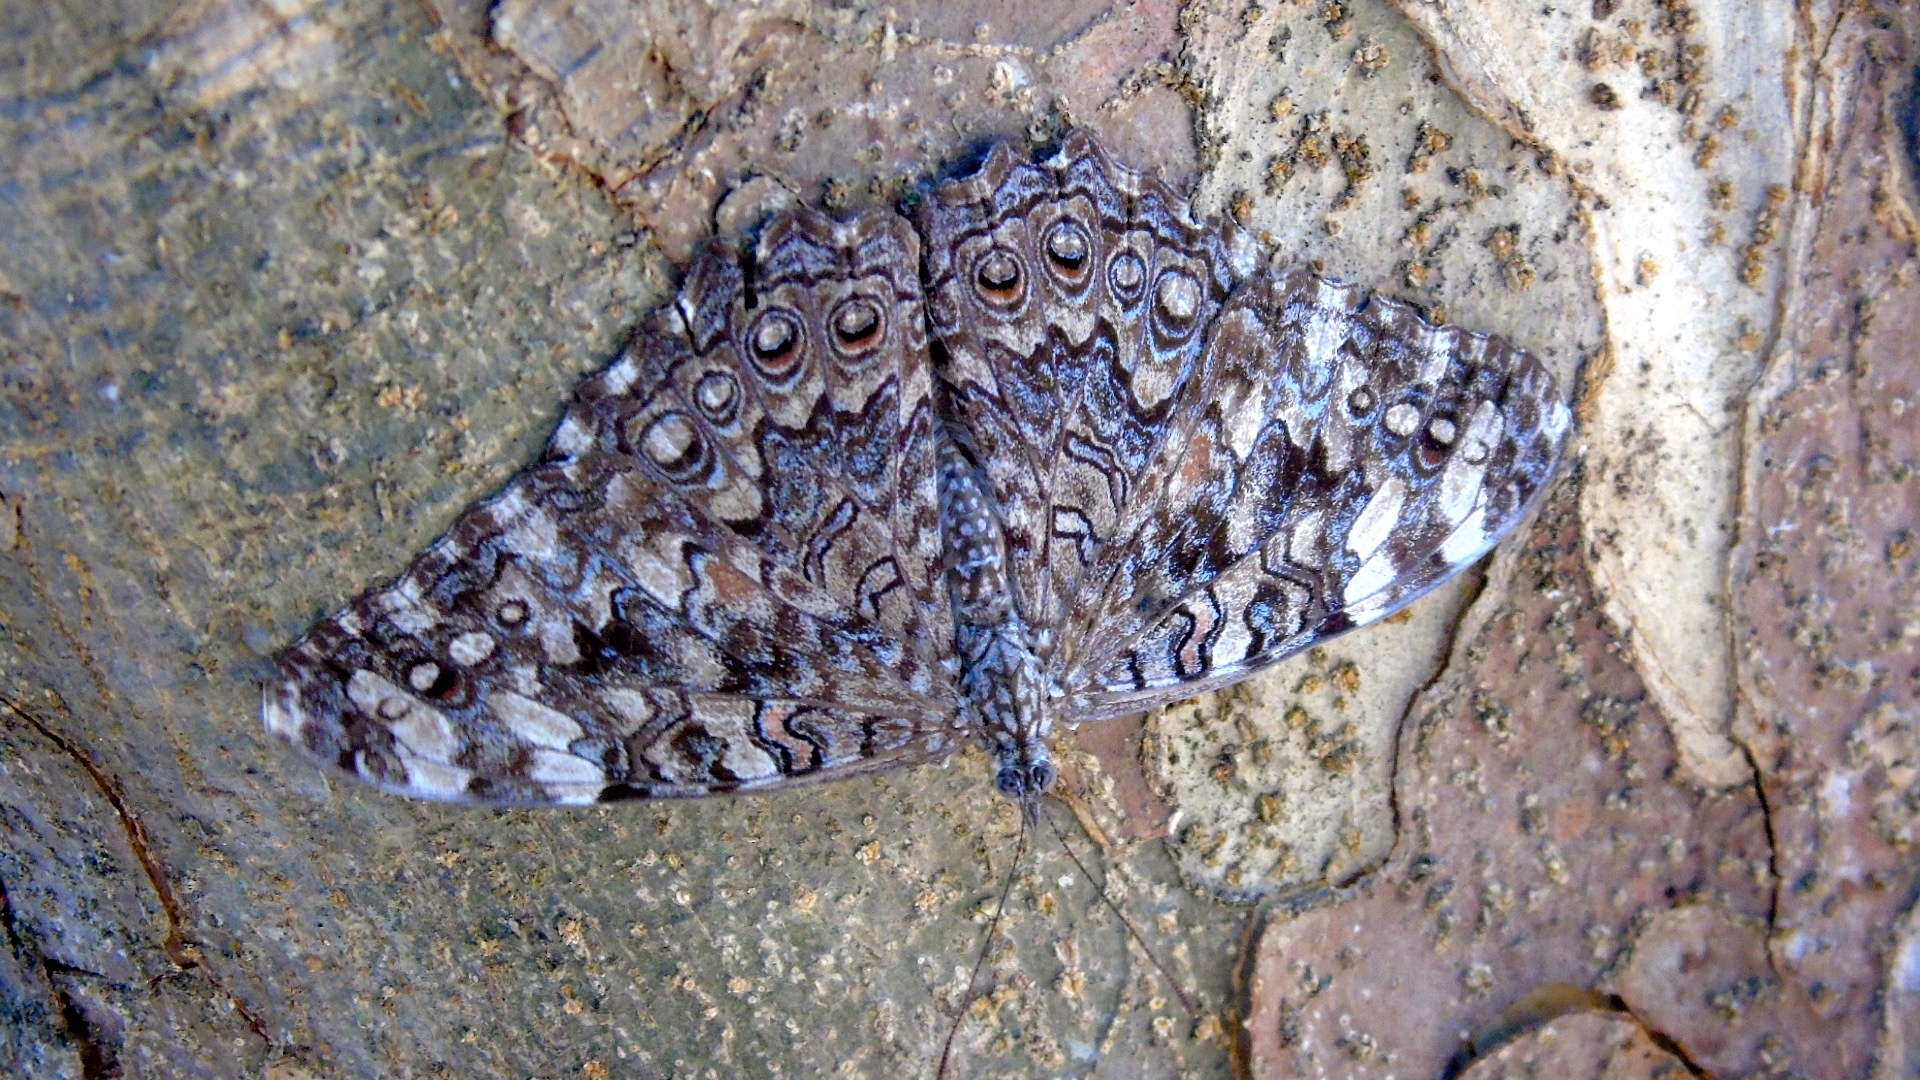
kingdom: Animalia
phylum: Arthropoda
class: Insecta
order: Lepidoptera
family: Nymphalidae
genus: Hamadryas
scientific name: Hamadryas februa
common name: Gray cracker
